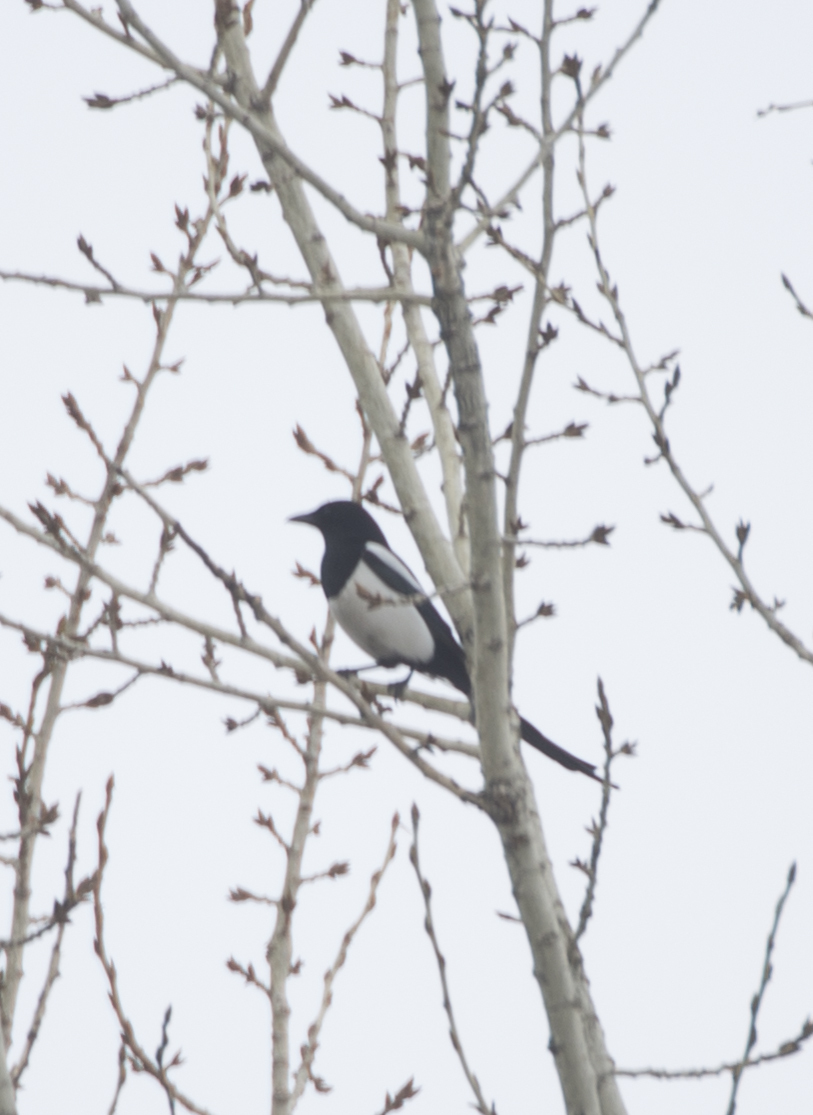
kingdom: Animalia
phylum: Chordata
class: Aves
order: Passeriformes
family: Corvidae
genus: Pica
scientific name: Pica pica
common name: Eurasian magpie
